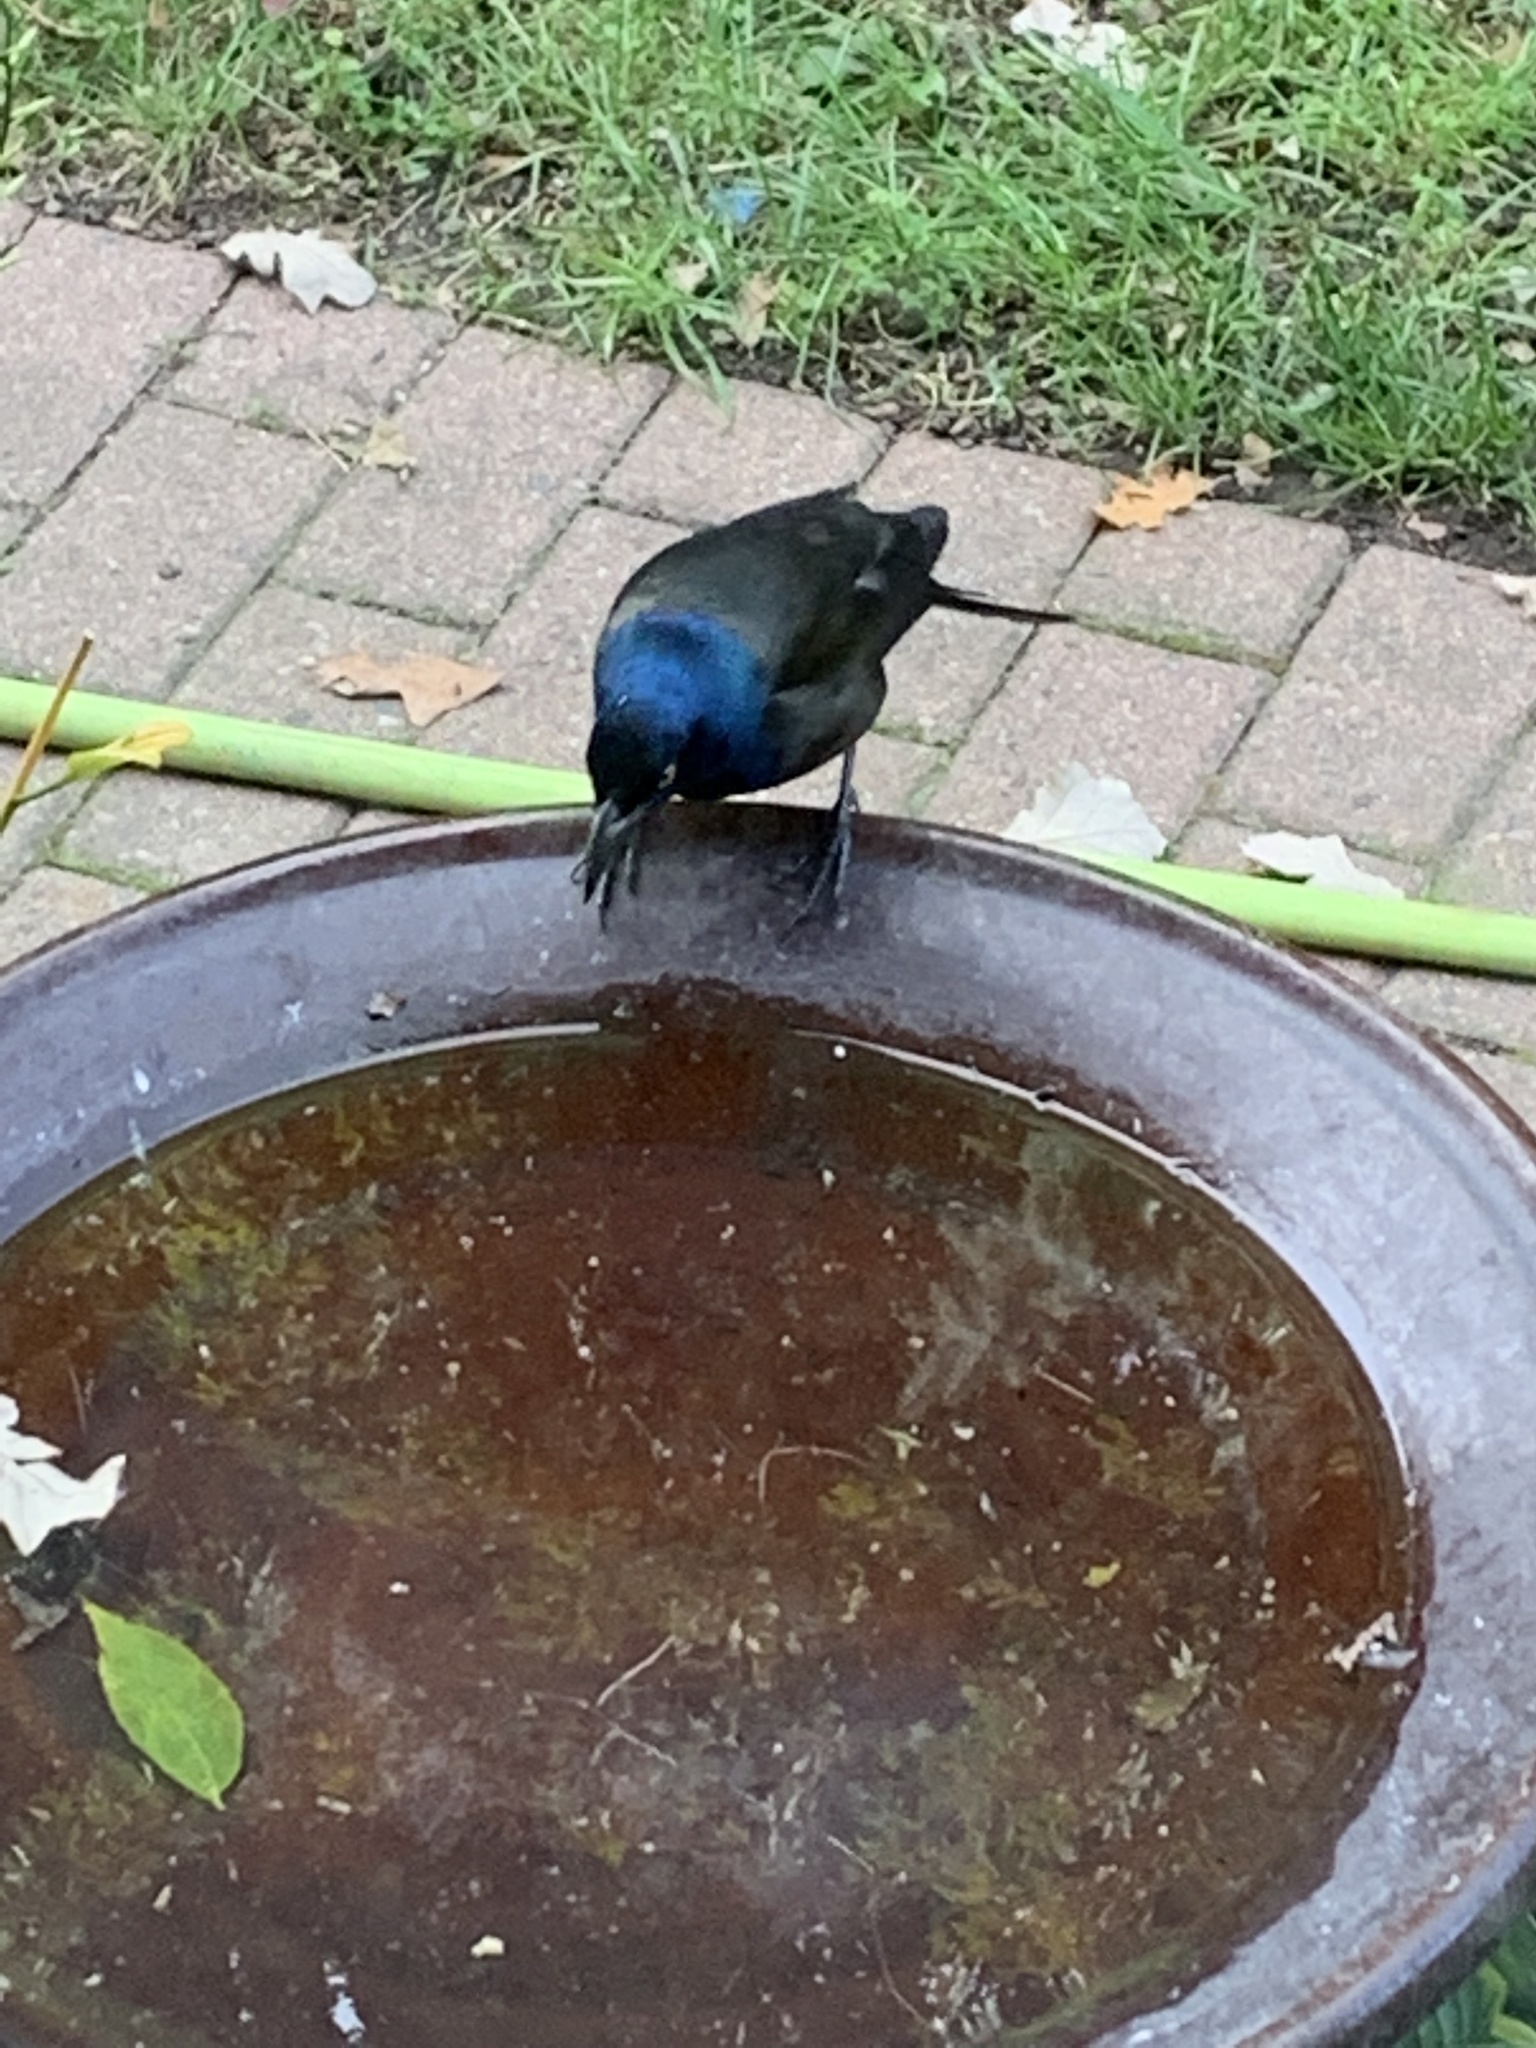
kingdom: Animalia
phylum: Chordata
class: Aves
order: Passeriformes
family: Icteridae
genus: Quiscalus
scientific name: Quiscalus quiscula
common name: Common grackle
